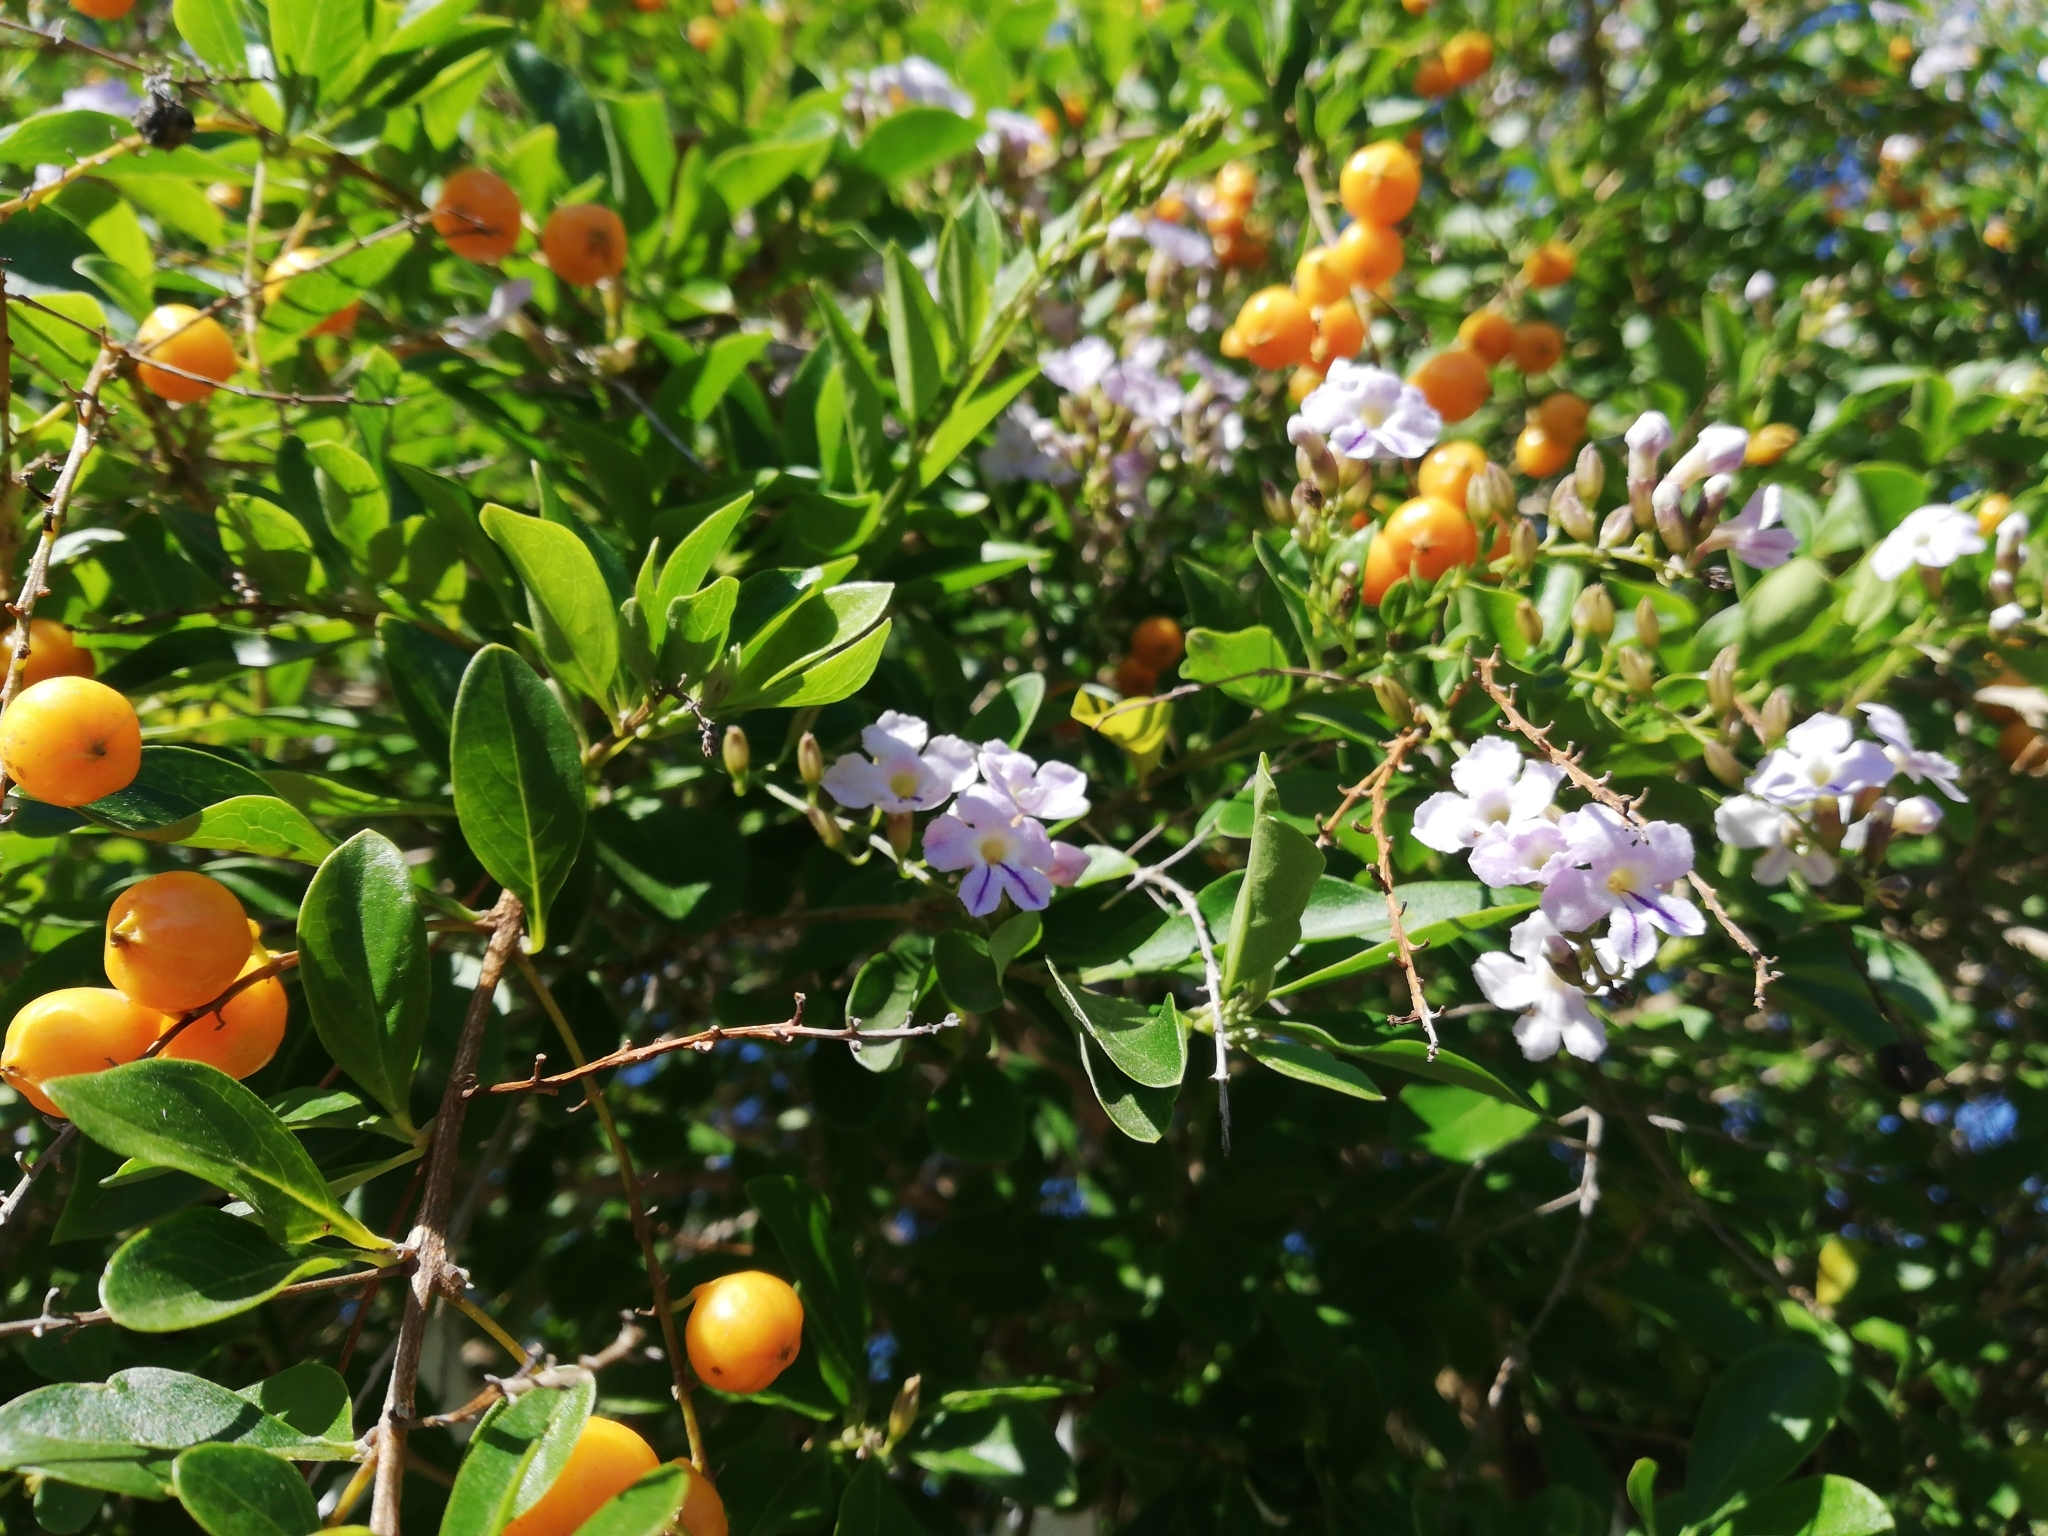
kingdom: Plantae
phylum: Tracheophyta
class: Magnoliopsida
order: Lamiales
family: Verbenaceae
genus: Duranta
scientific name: Duranta erecta
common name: Golden dewdrops
